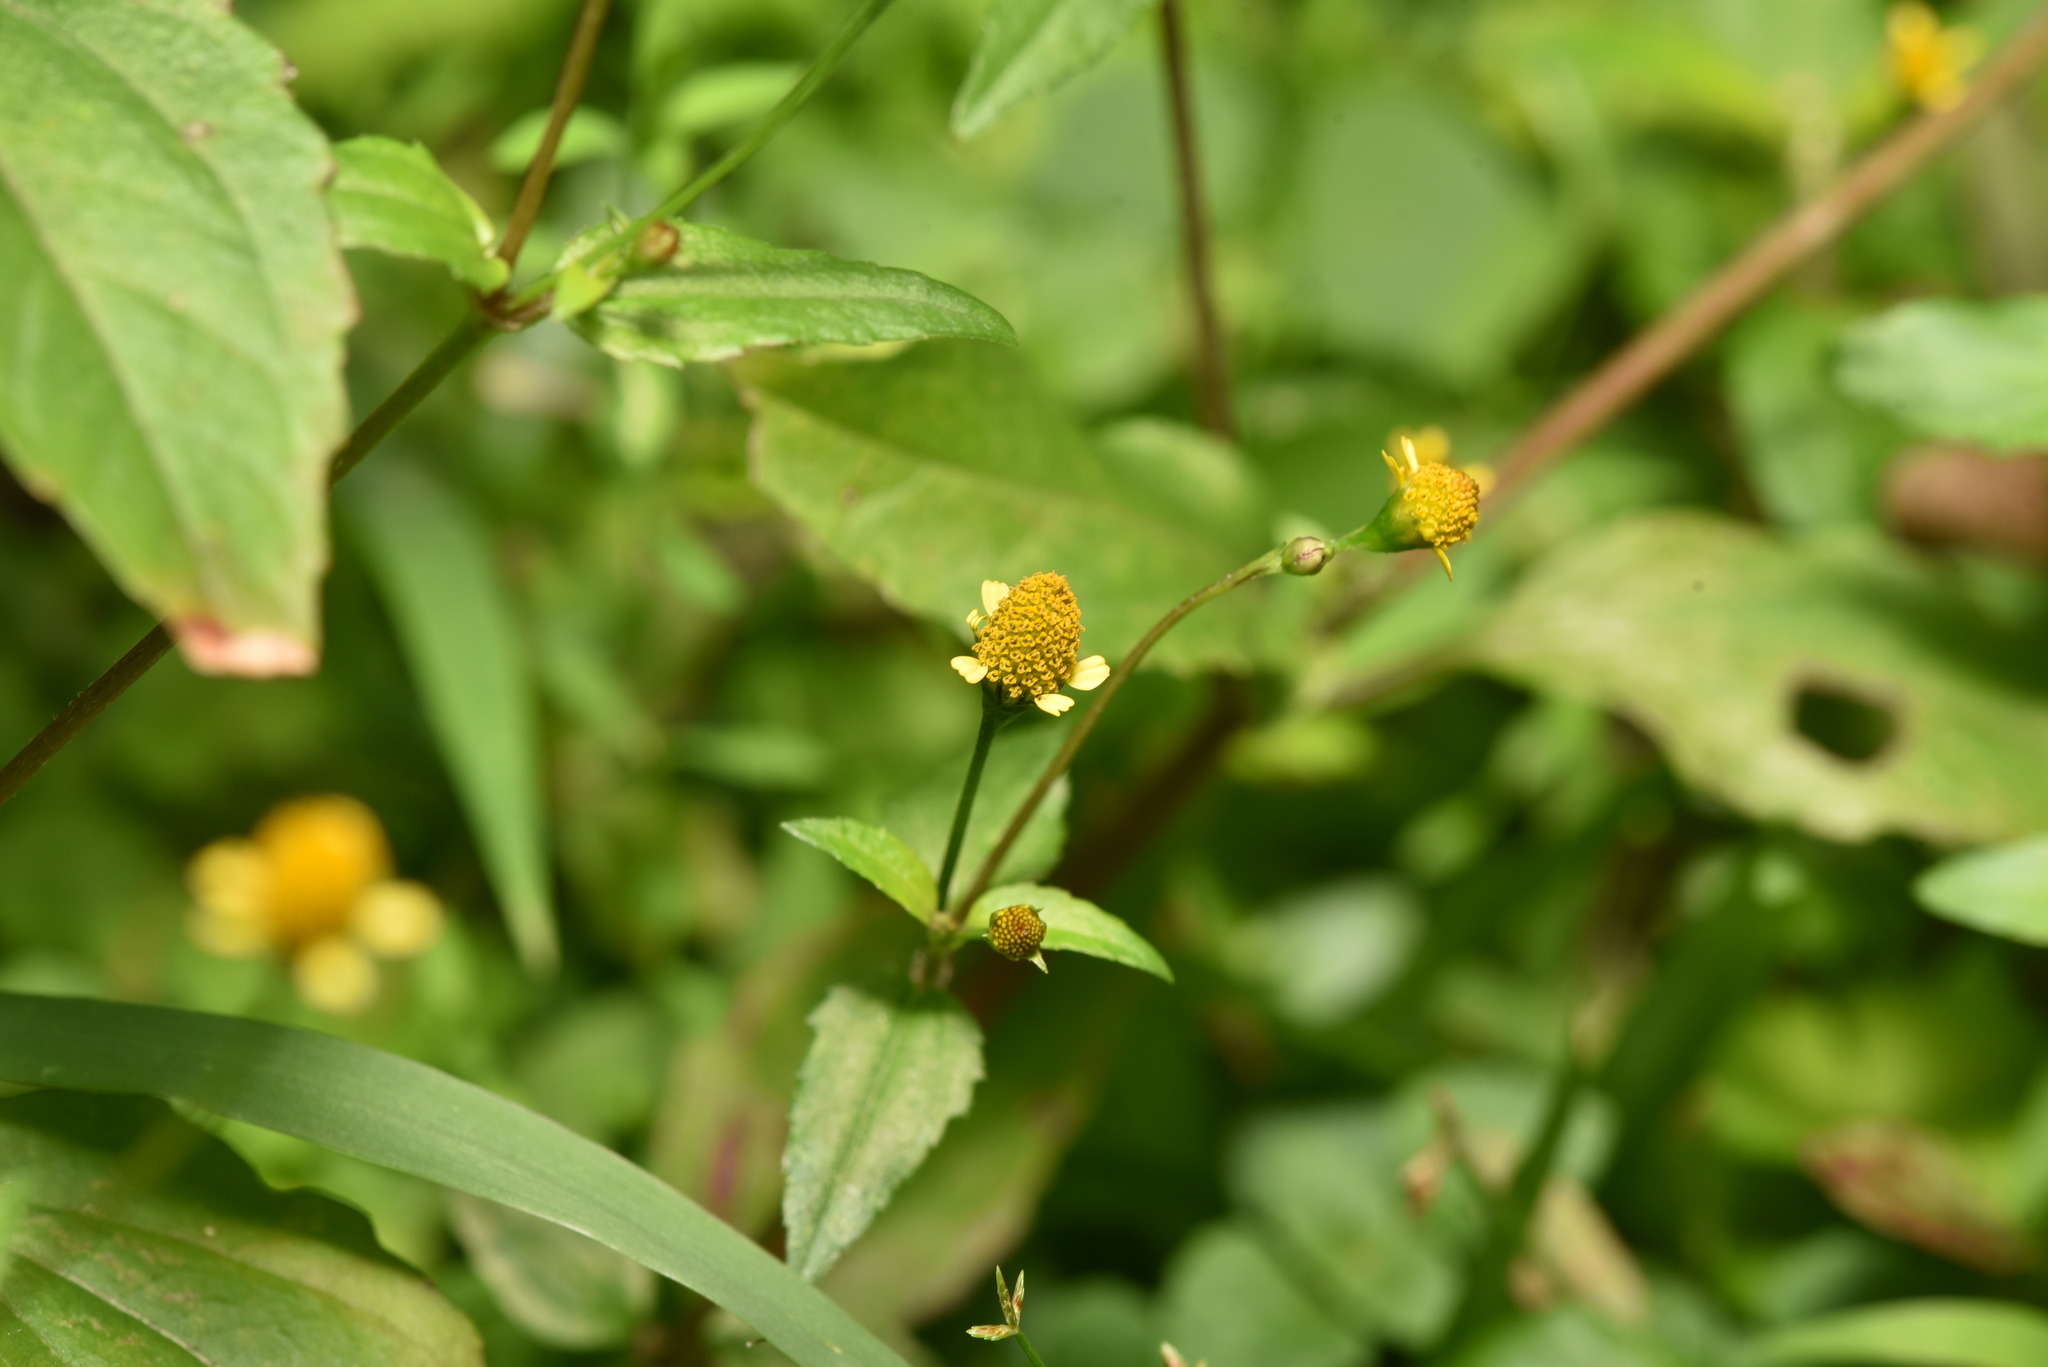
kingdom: Plantae
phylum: Tracheophyta
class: Magnoliopsida
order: Asterales
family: Asteraceae
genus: Acmella
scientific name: Acmella uliginosa
